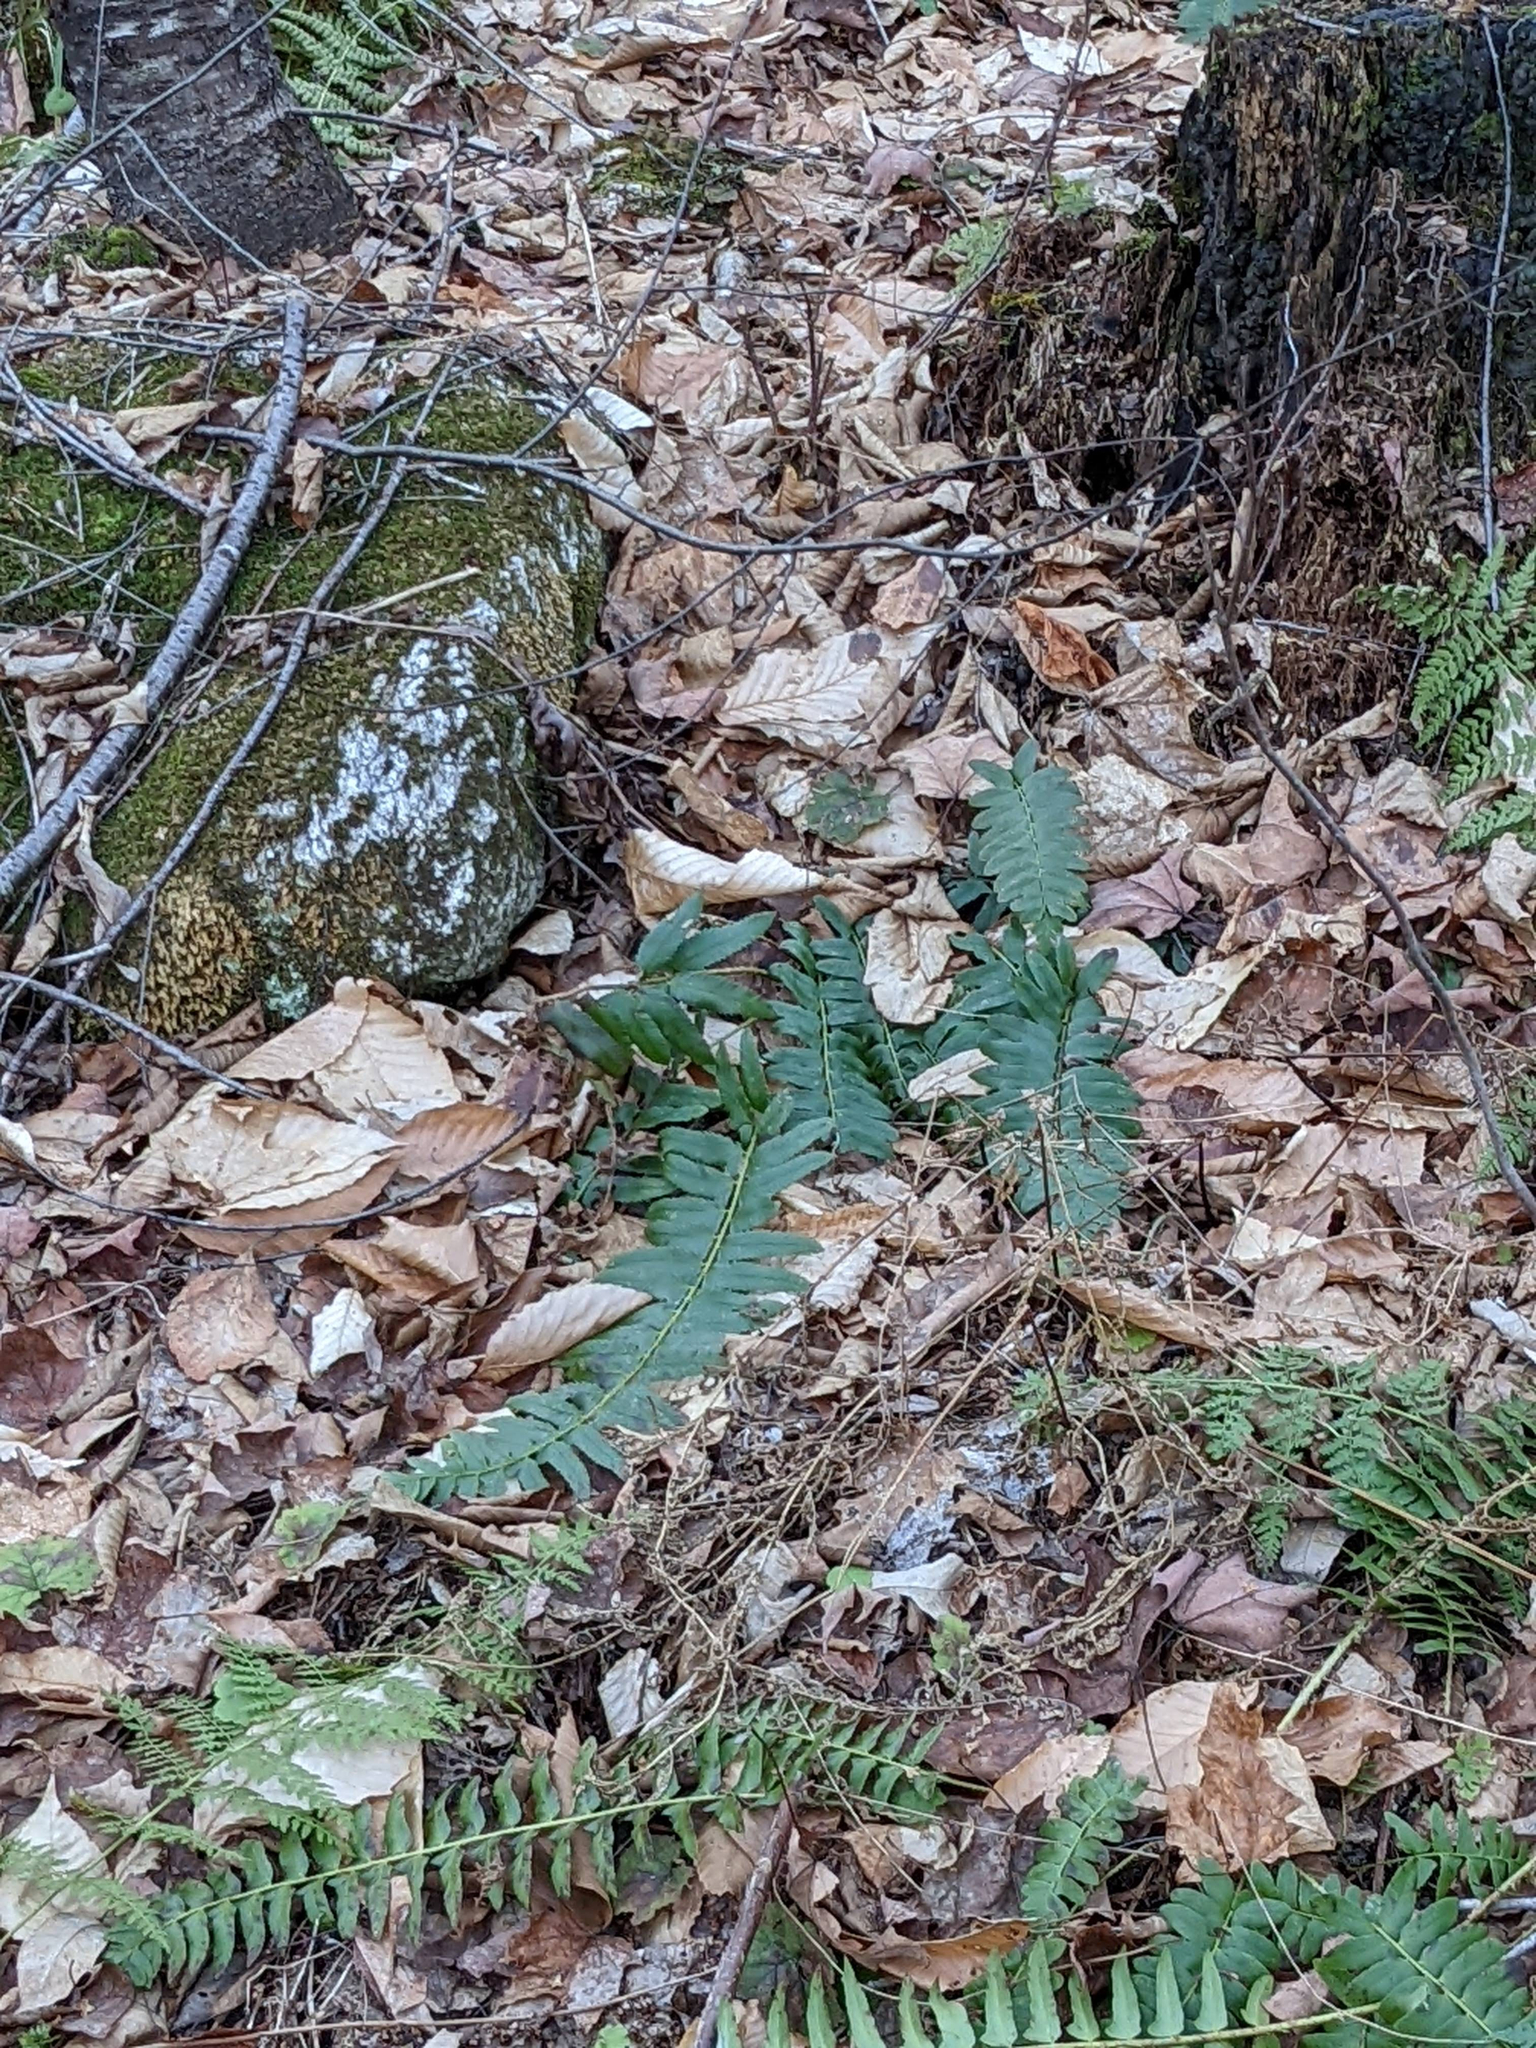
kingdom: Plantae
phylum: Tracheophyta
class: Polypodiopsida
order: Polypodiales
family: Dryopteridaceae
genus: Polystichum
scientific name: Polystichum acrostichoides
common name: Christmas fern
